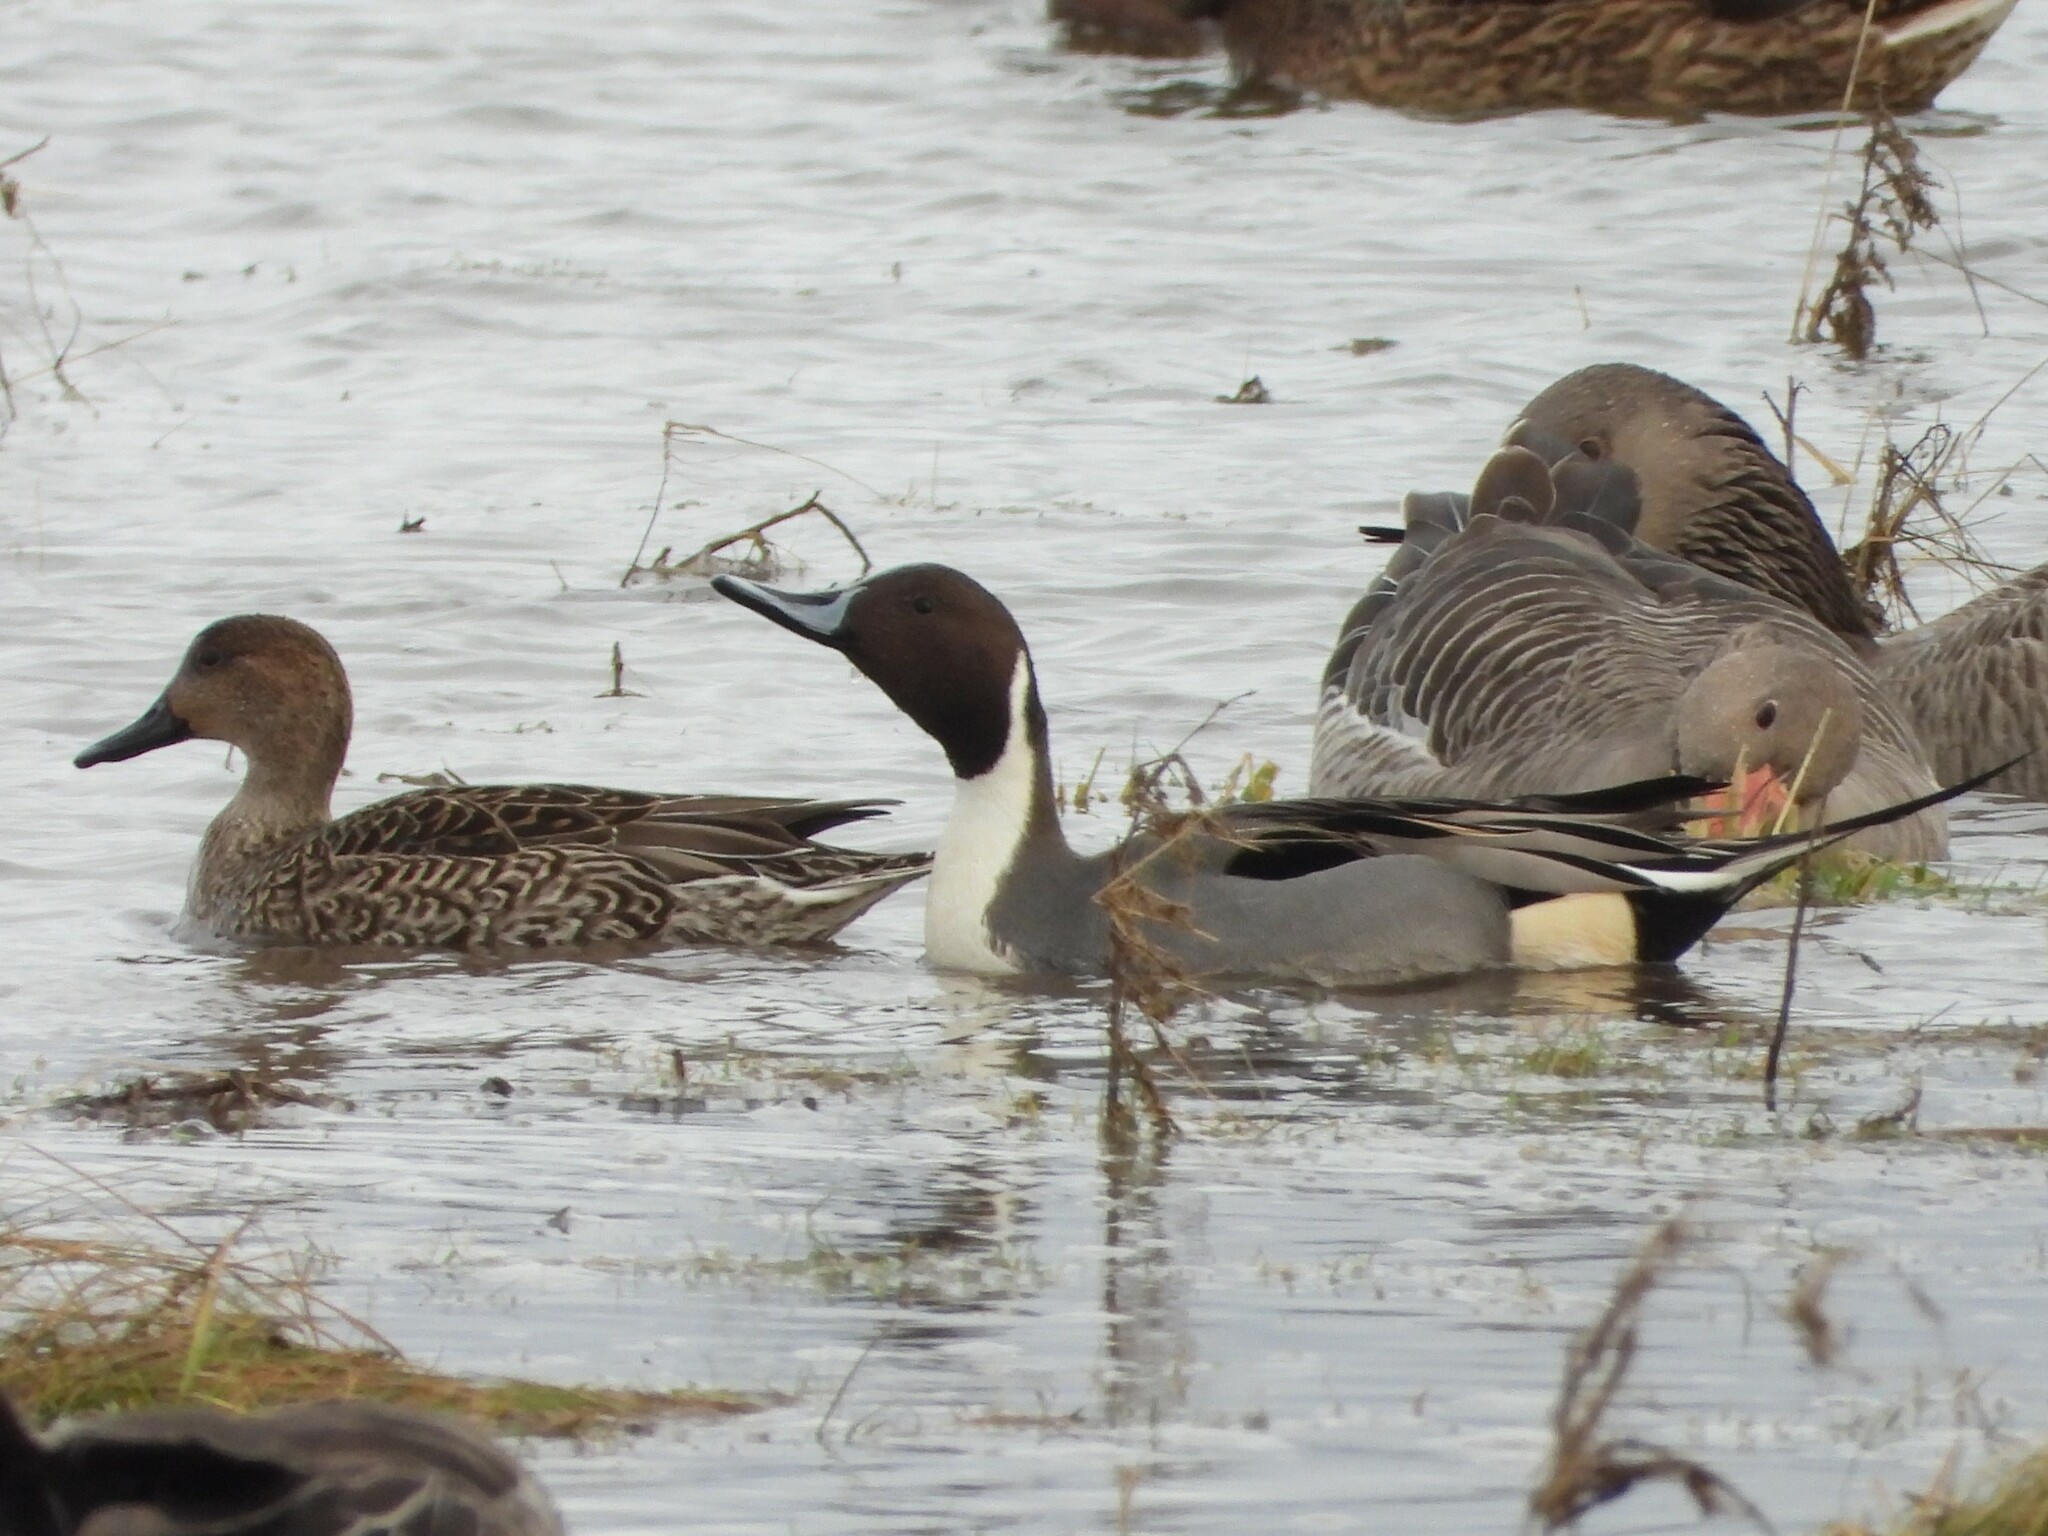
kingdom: Animalia
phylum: Chordata
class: Aves
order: Anseriformes
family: Anatidae
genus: Anas
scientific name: Anas acuta
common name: Northern pintail
